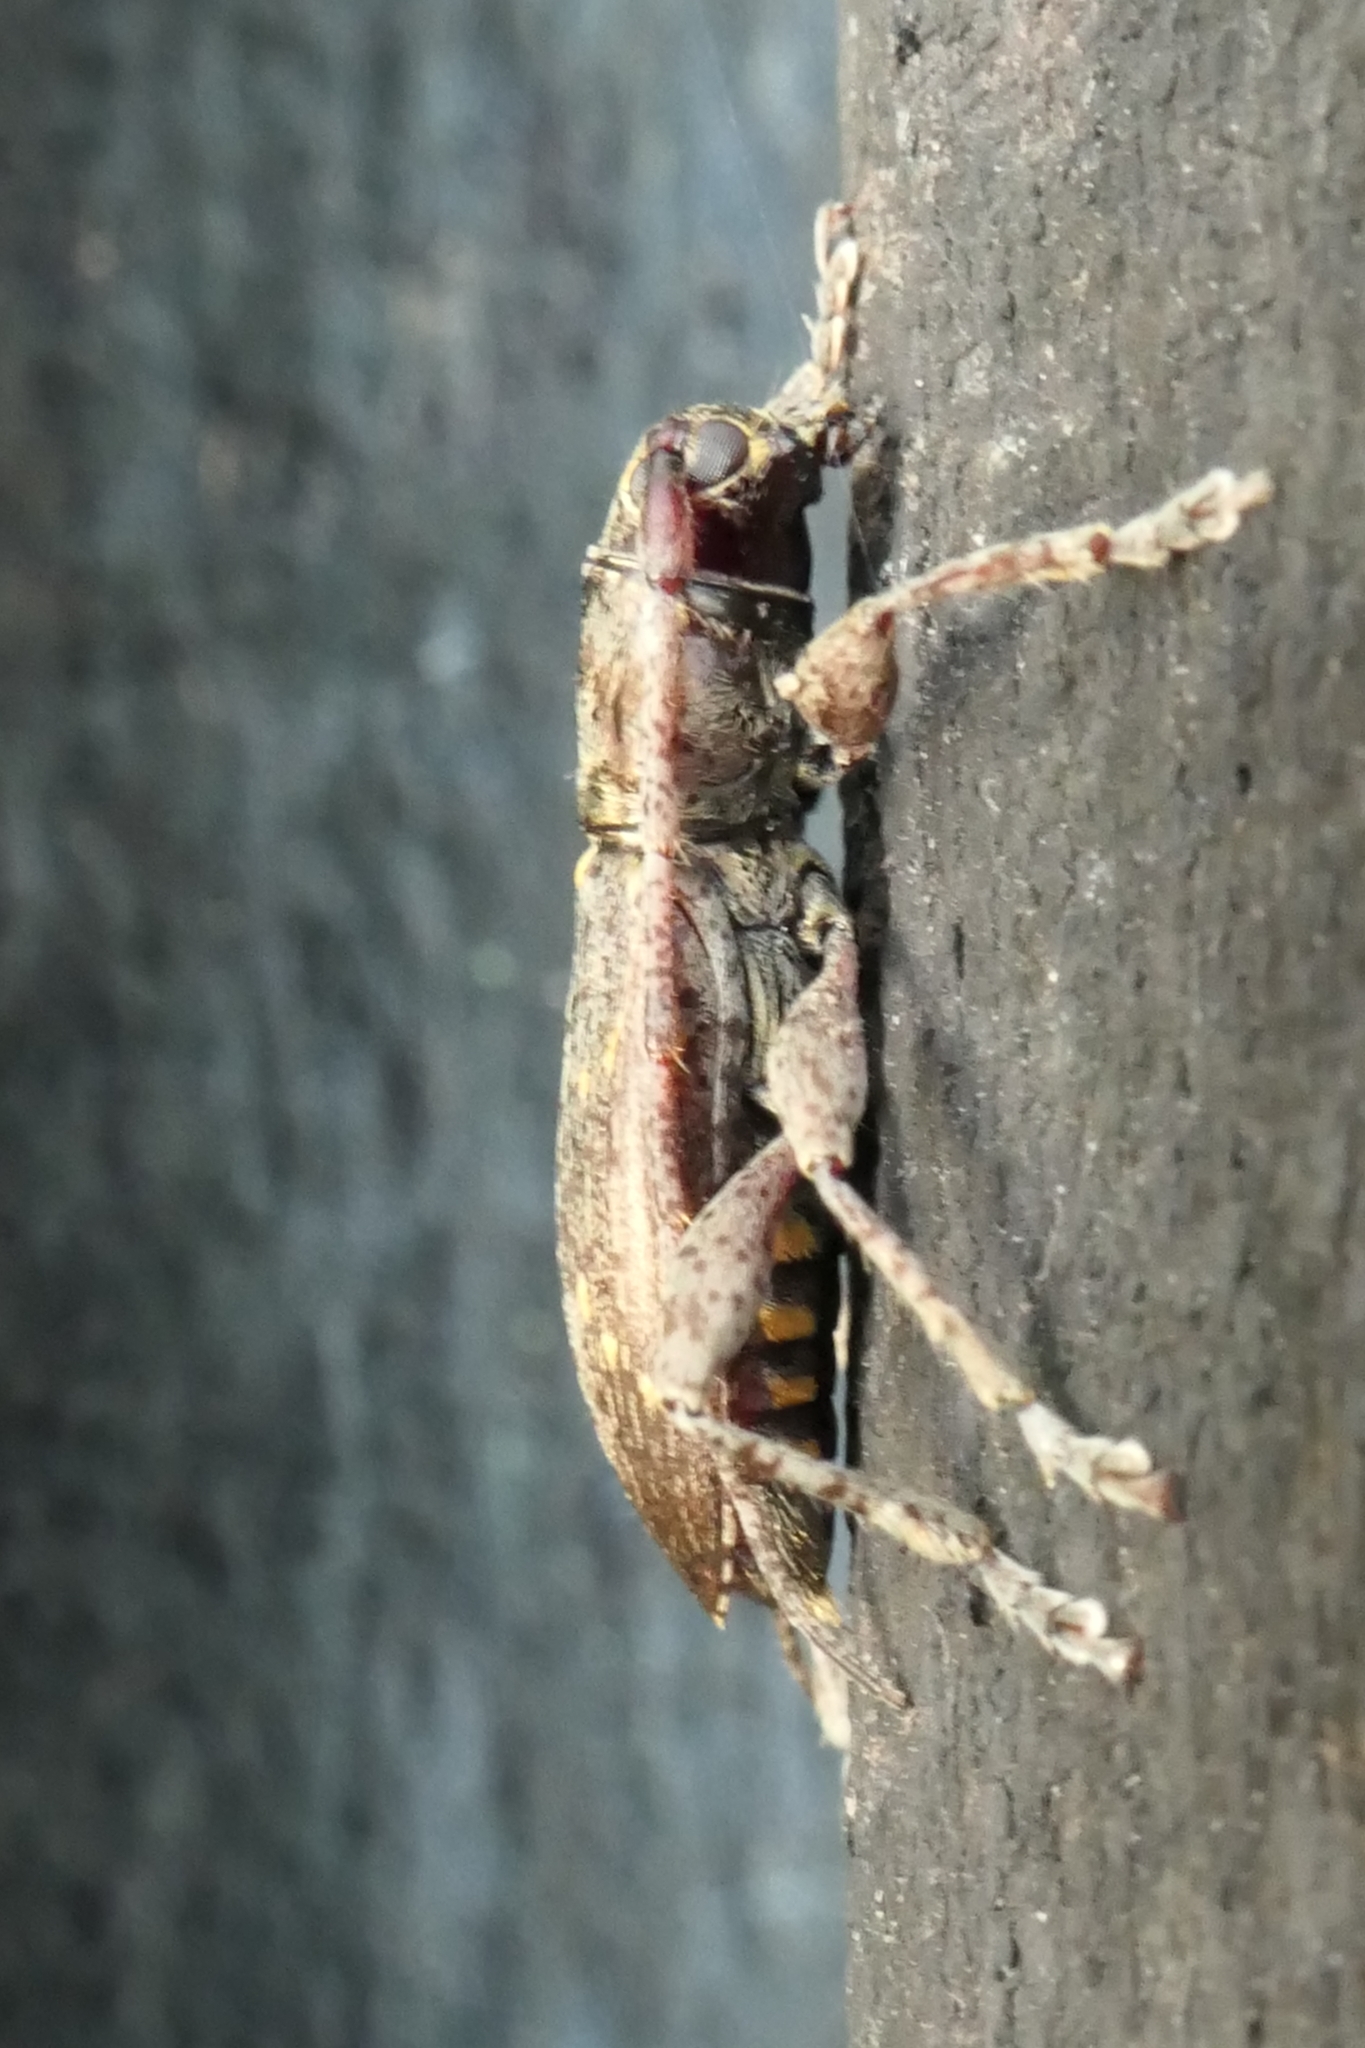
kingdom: Animalia
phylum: Arthropoda
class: Insecta
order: Coleoptera
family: Cerambycidae
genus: Xylotoles
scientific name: Xylotoles griseus
